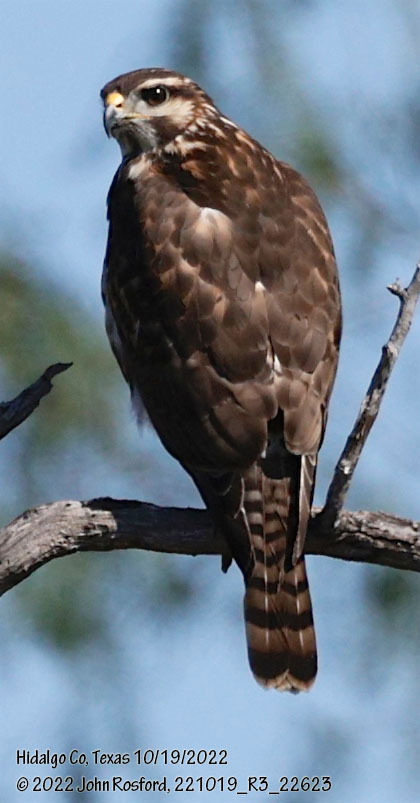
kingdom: Animalia
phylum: Chordata
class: Aves
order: Accipitriformes
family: Accipitridae
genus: Buteo
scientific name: Buteo nitidus
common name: Grey-lined hawk
